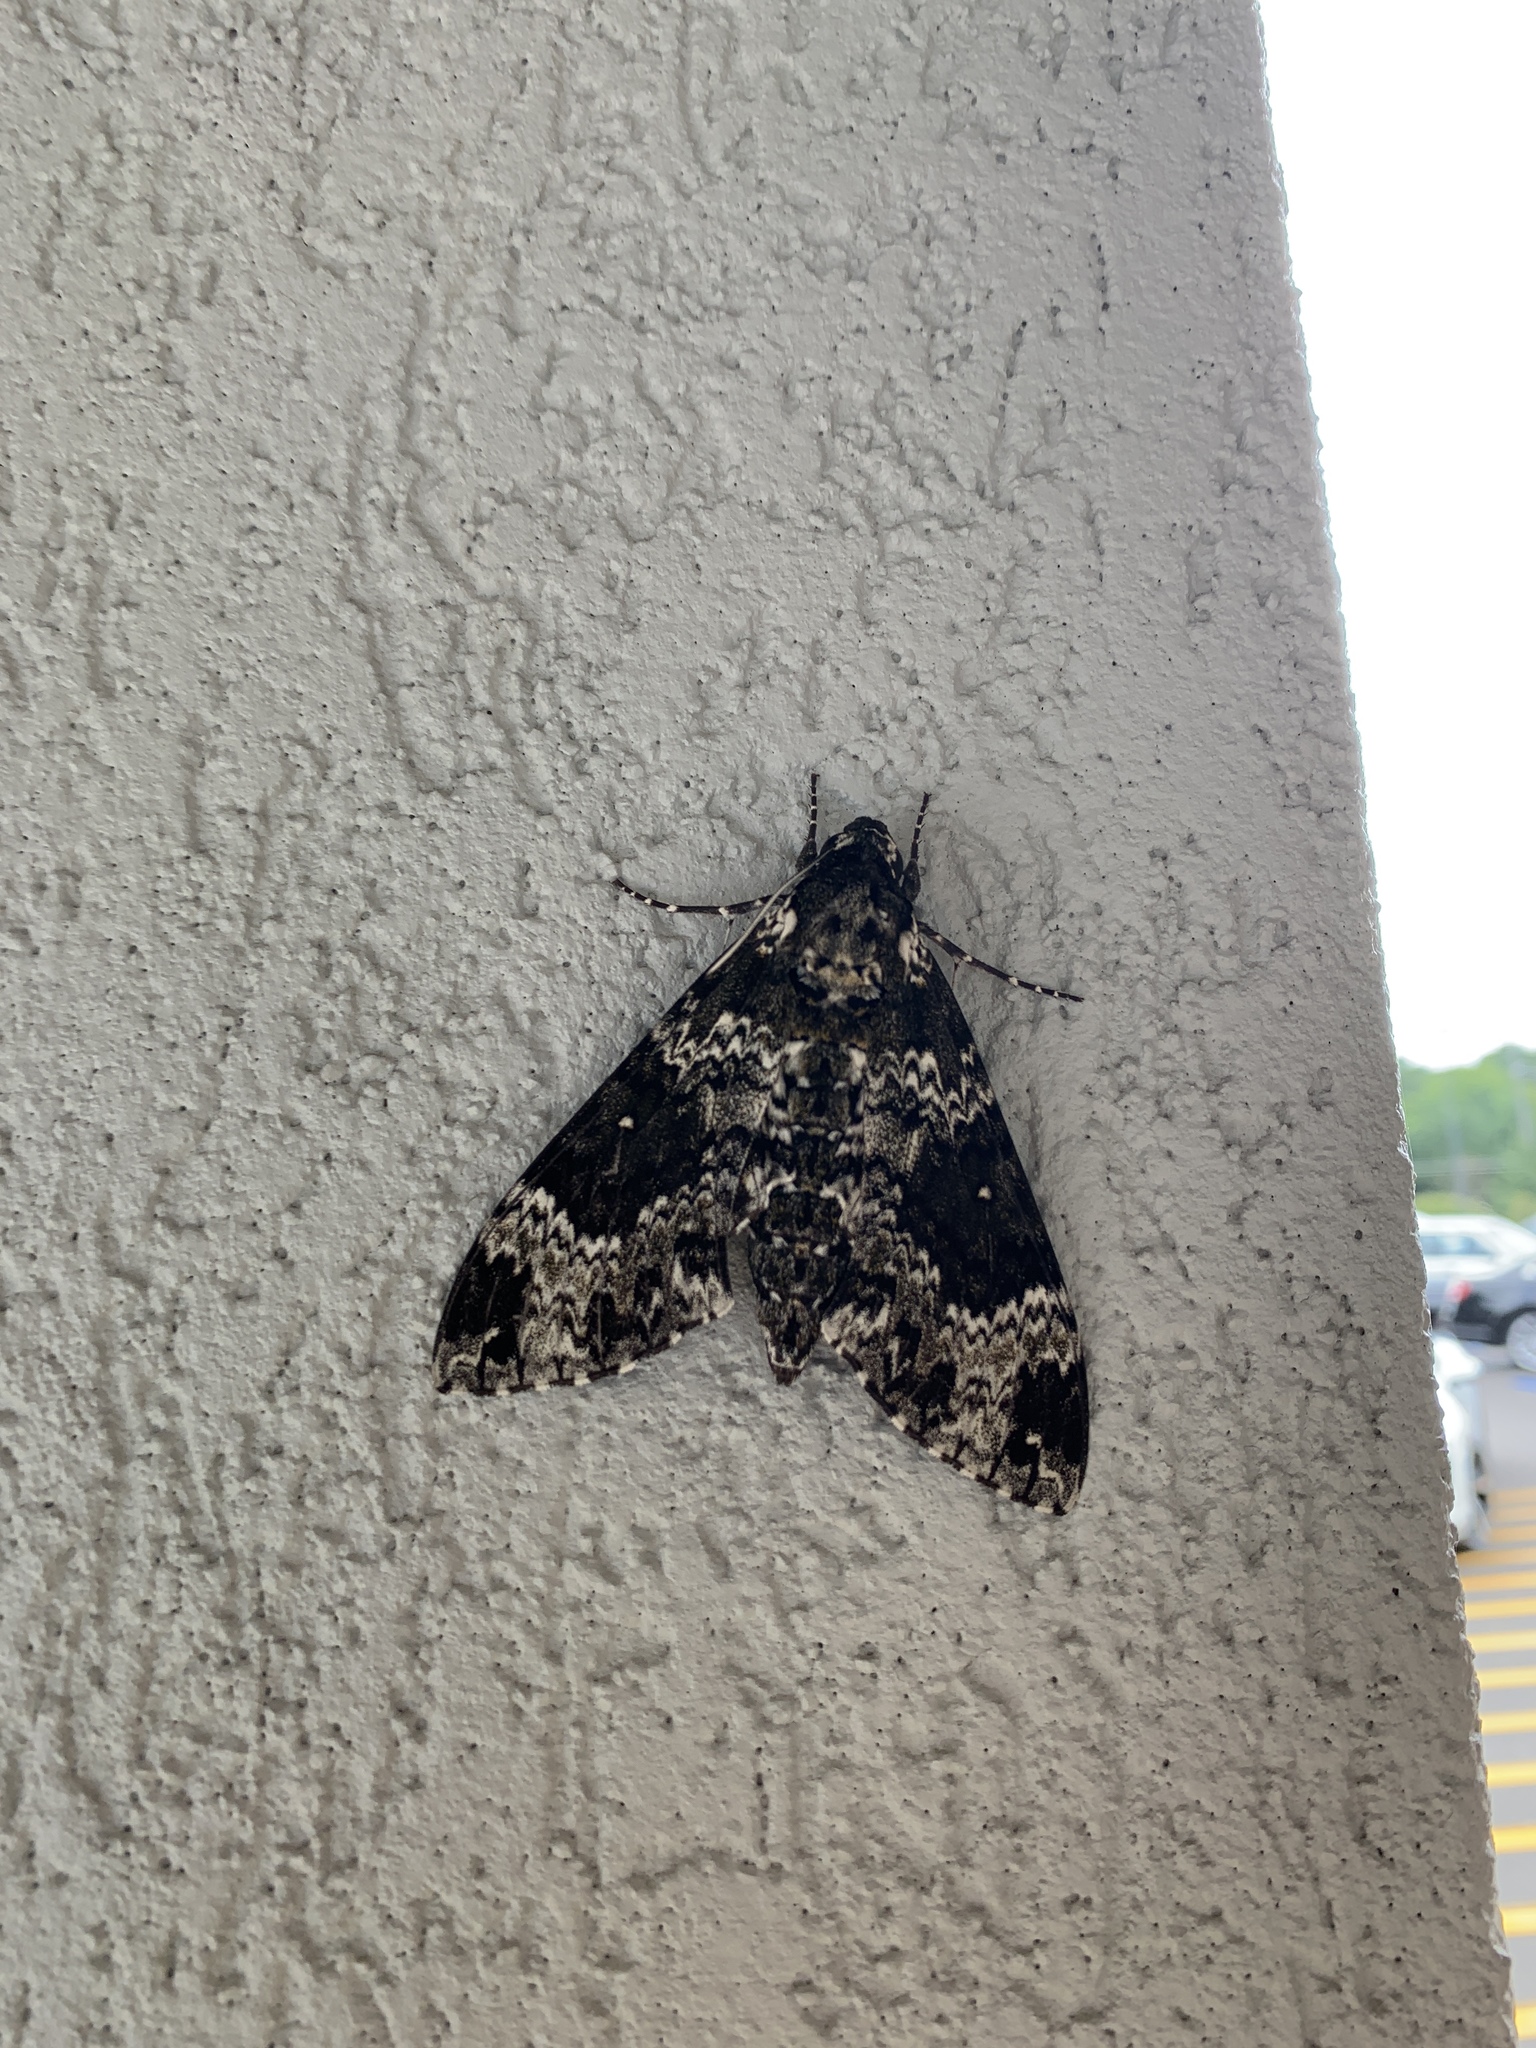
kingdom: Animalia
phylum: Arthropoda
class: Insecta
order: Lepidoptera
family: Sphingidae
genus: Manduca
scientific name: Manduca rustica
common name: Rustic sphinx
